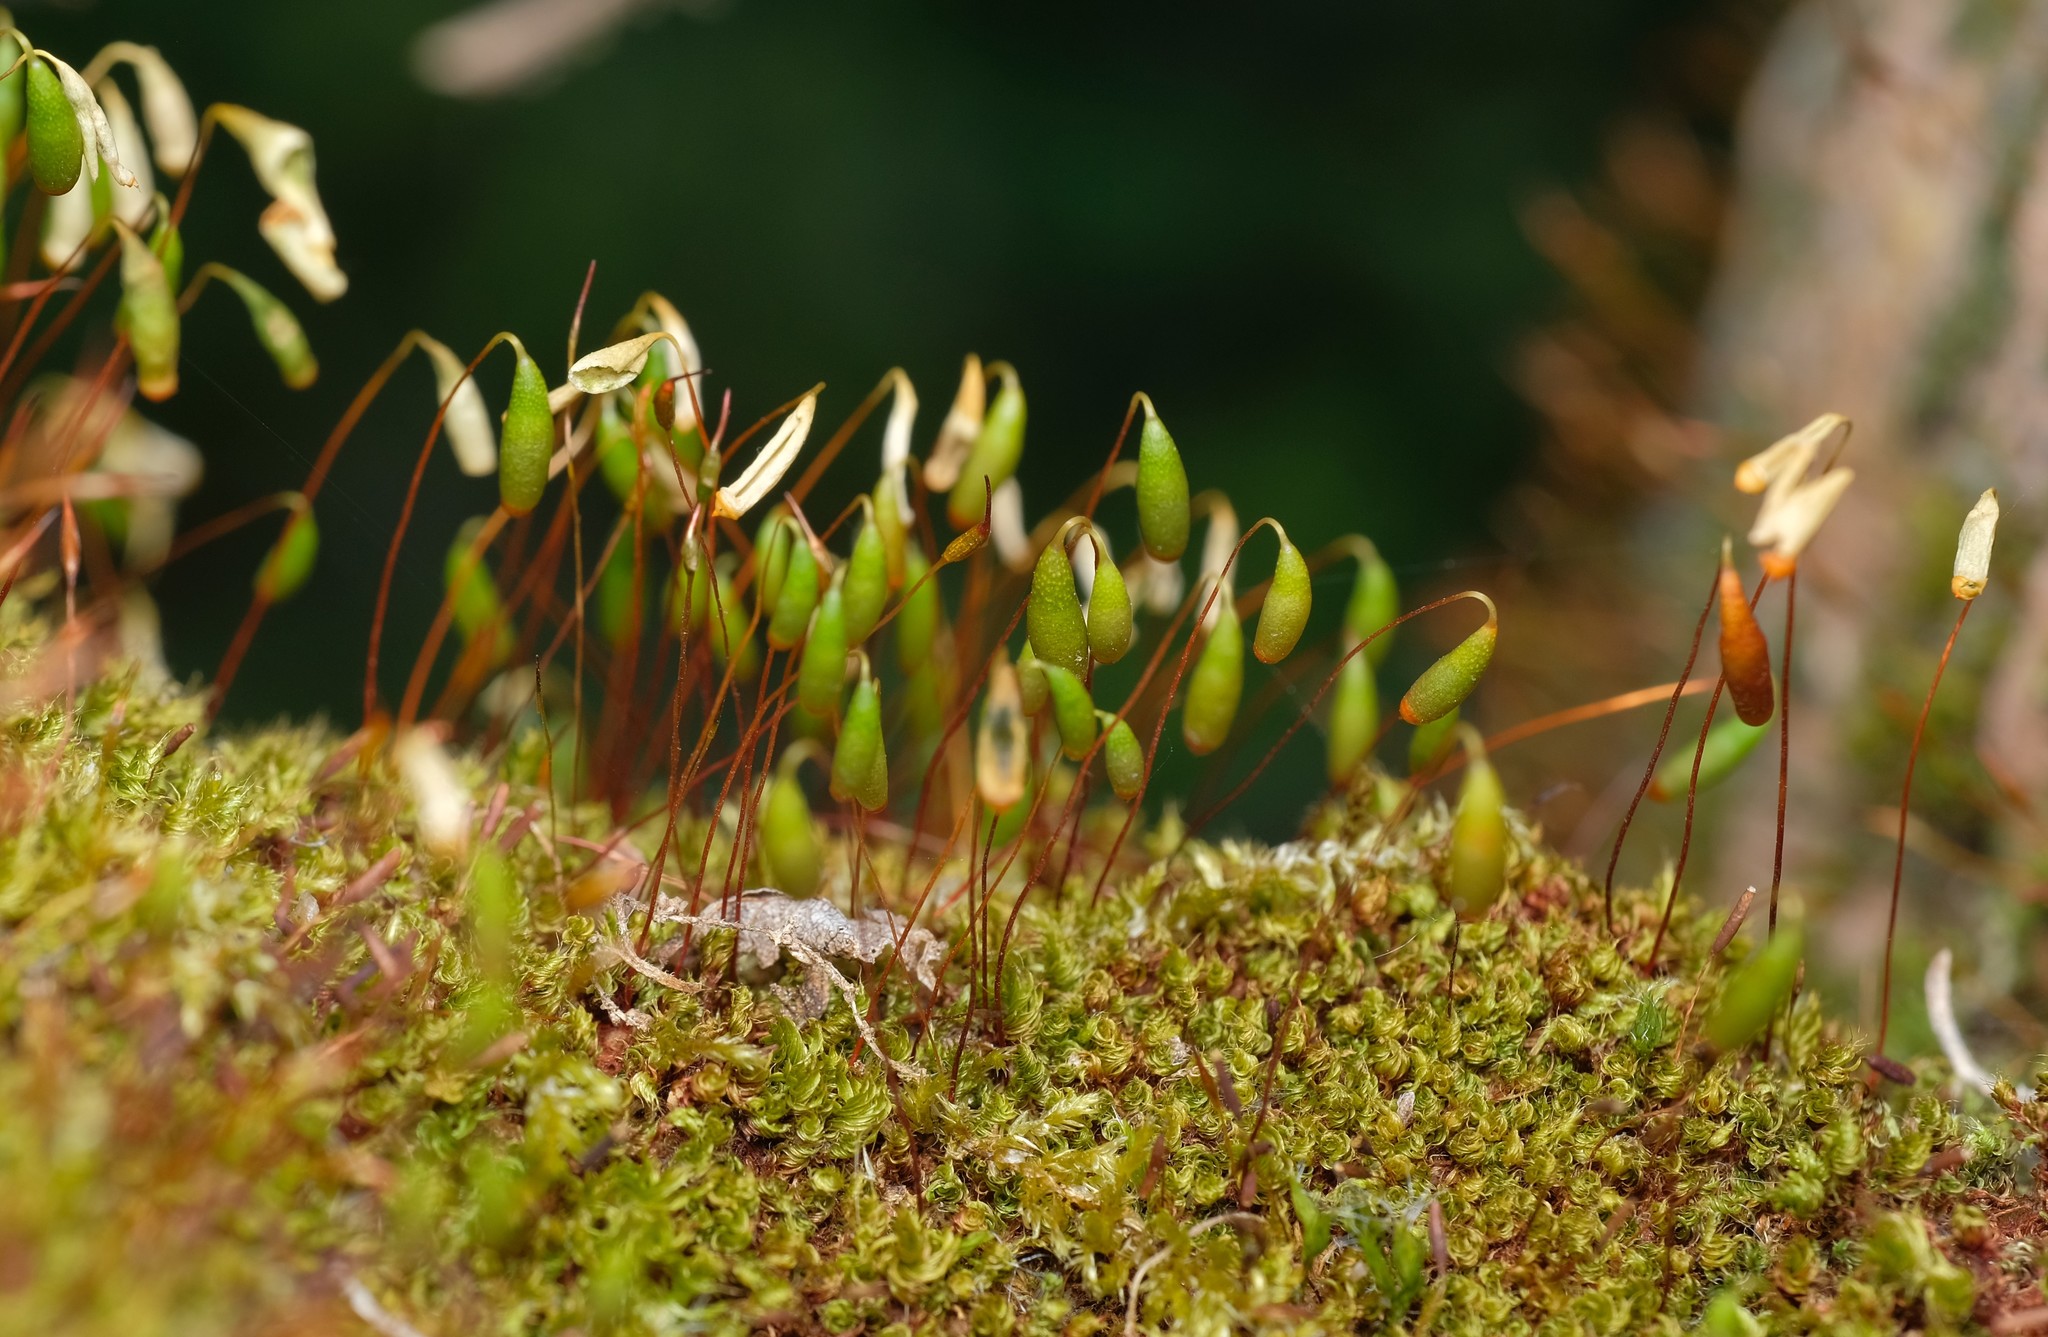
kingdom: Plantae
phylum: Bryophyta
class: Bryopsida
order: Bryales
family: Bryaceae
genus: Rosulabryum
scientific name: Rosulabryum capillare
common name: Capillary thread-moss
